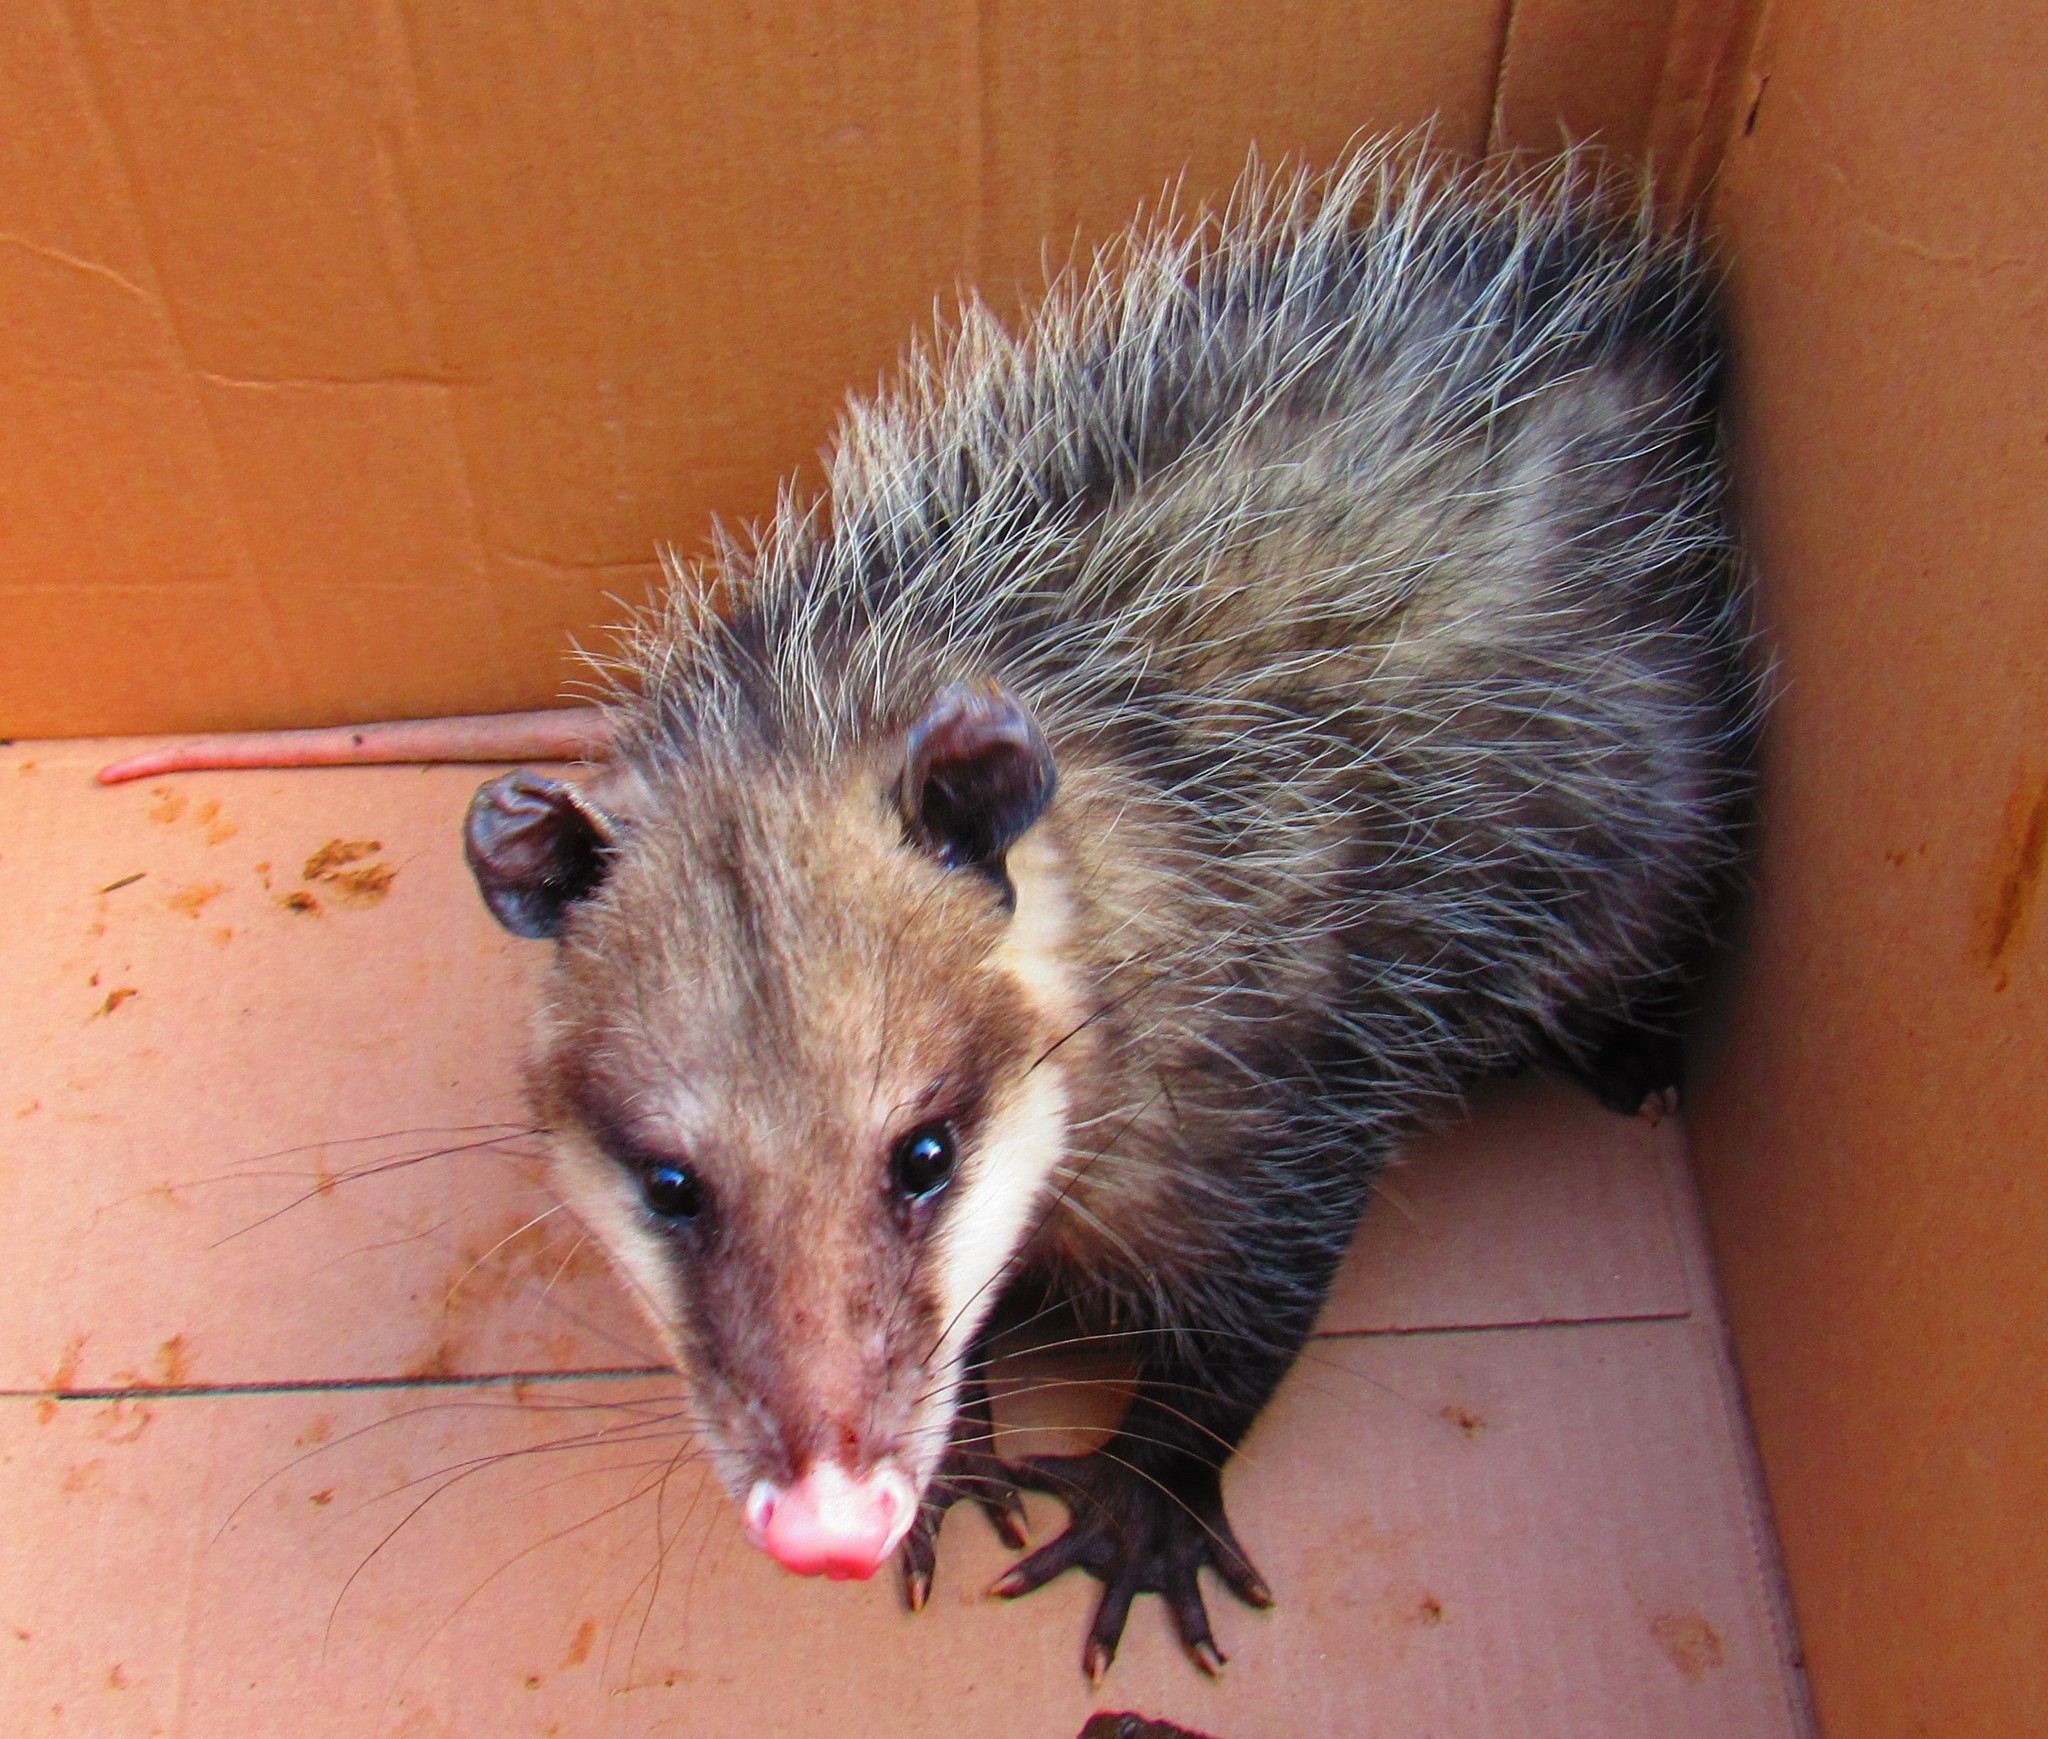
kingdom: Animalia
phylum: Chordata
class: Mammalia
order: Didelphimorphia
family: Didelphidae
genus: Didelphis
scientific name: Didelphis virginiana
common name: Virginia opossum
